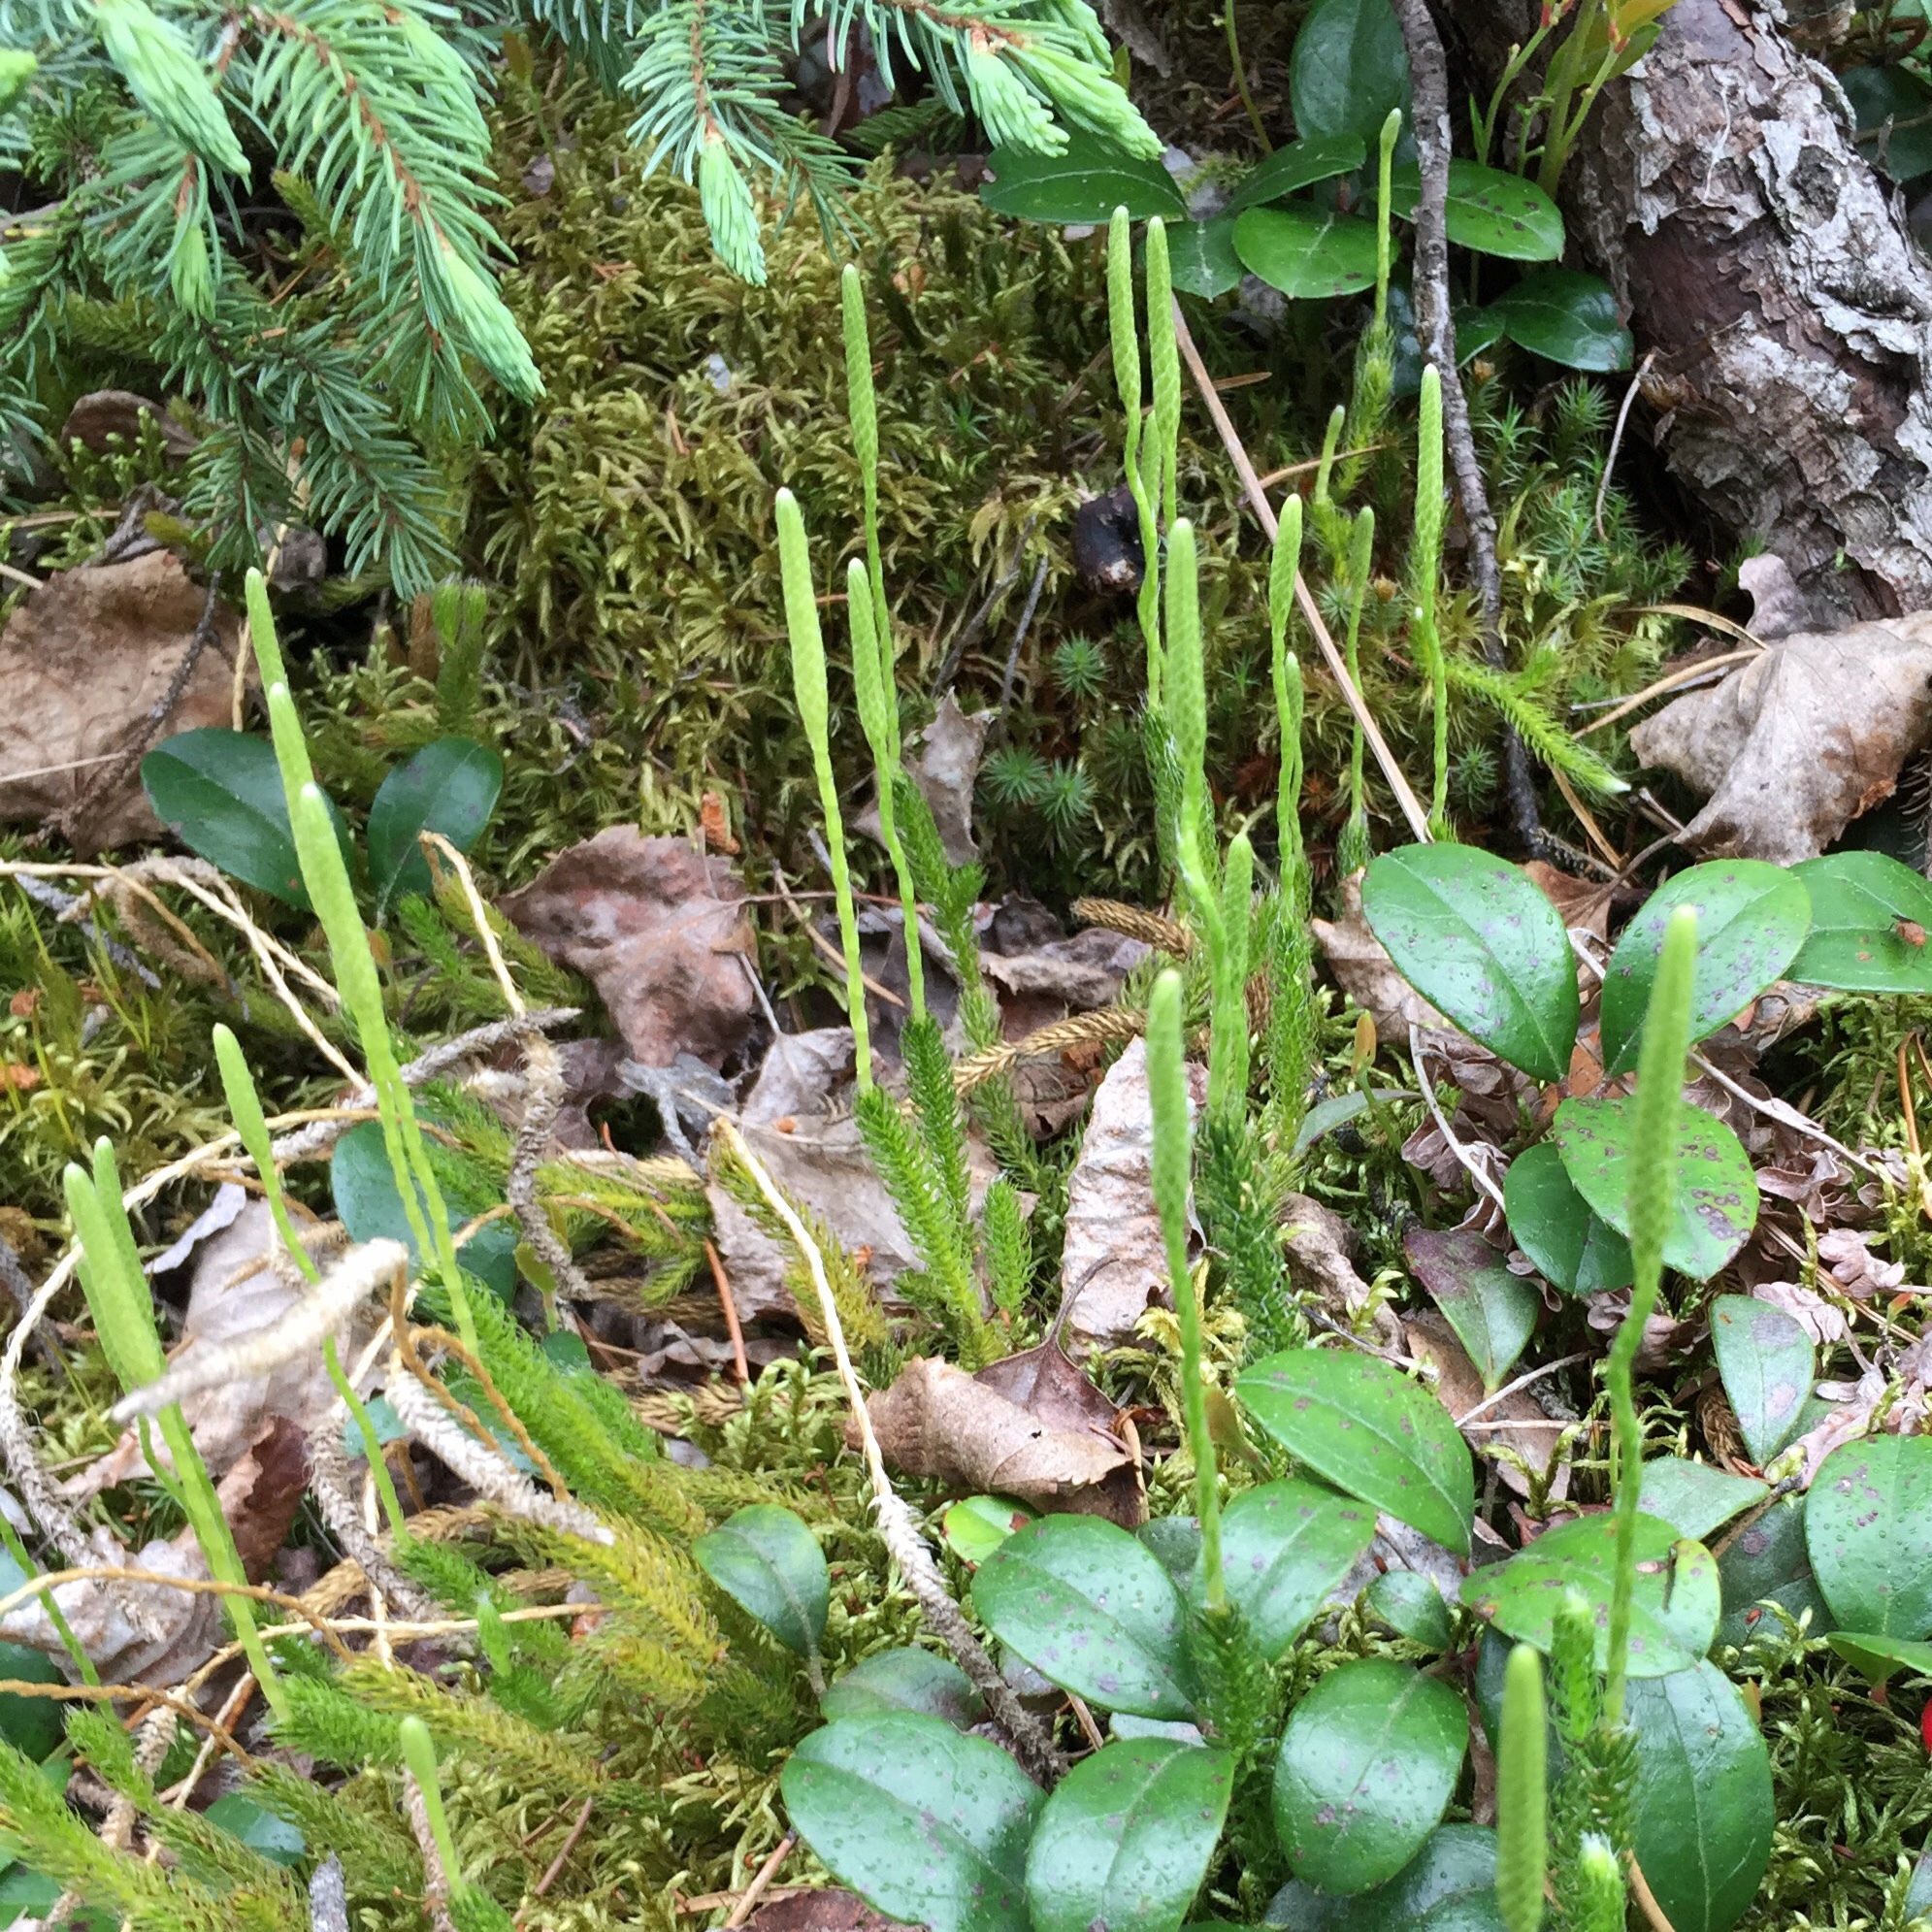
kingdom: Plantae
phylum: Tracheophyta
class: Lycopodiopsida
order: Lycopodiales
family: Lycopodiaceae
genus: Lycopodium
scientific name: Lycopodium lagopus
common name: One-cone clubmoss
